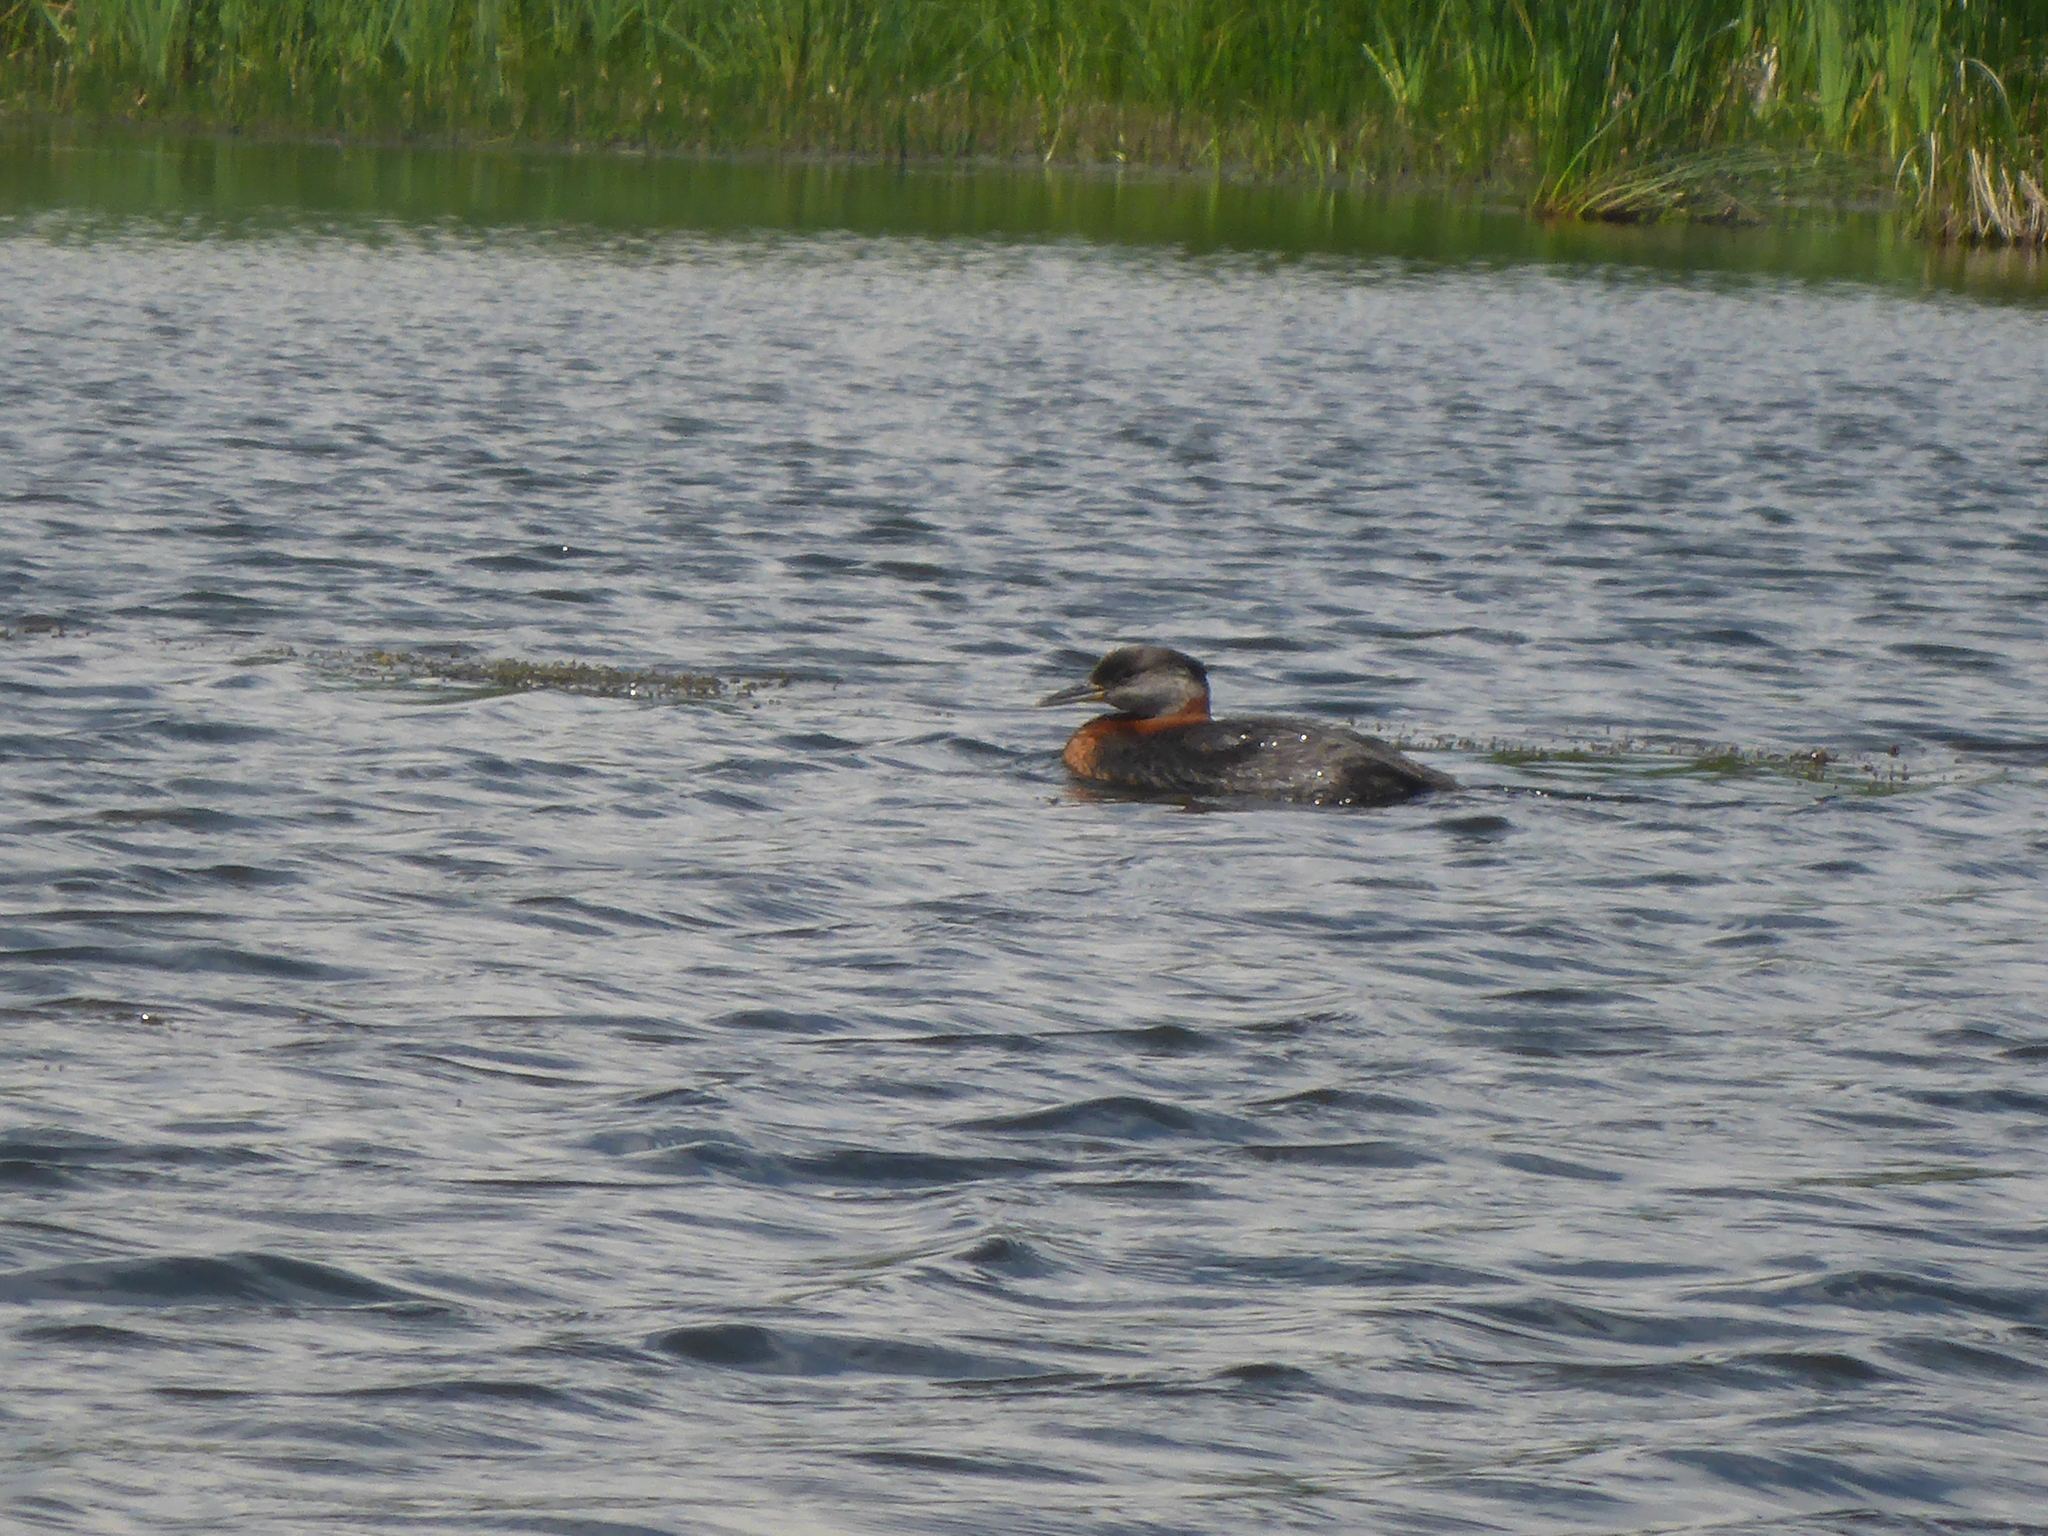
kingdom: Animalia
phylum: Chordata
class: Aves
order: Podicipediformes
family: Podicipedidae
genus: Podiceps
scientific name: Podiceps grisegena
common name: Red-necked grebe
